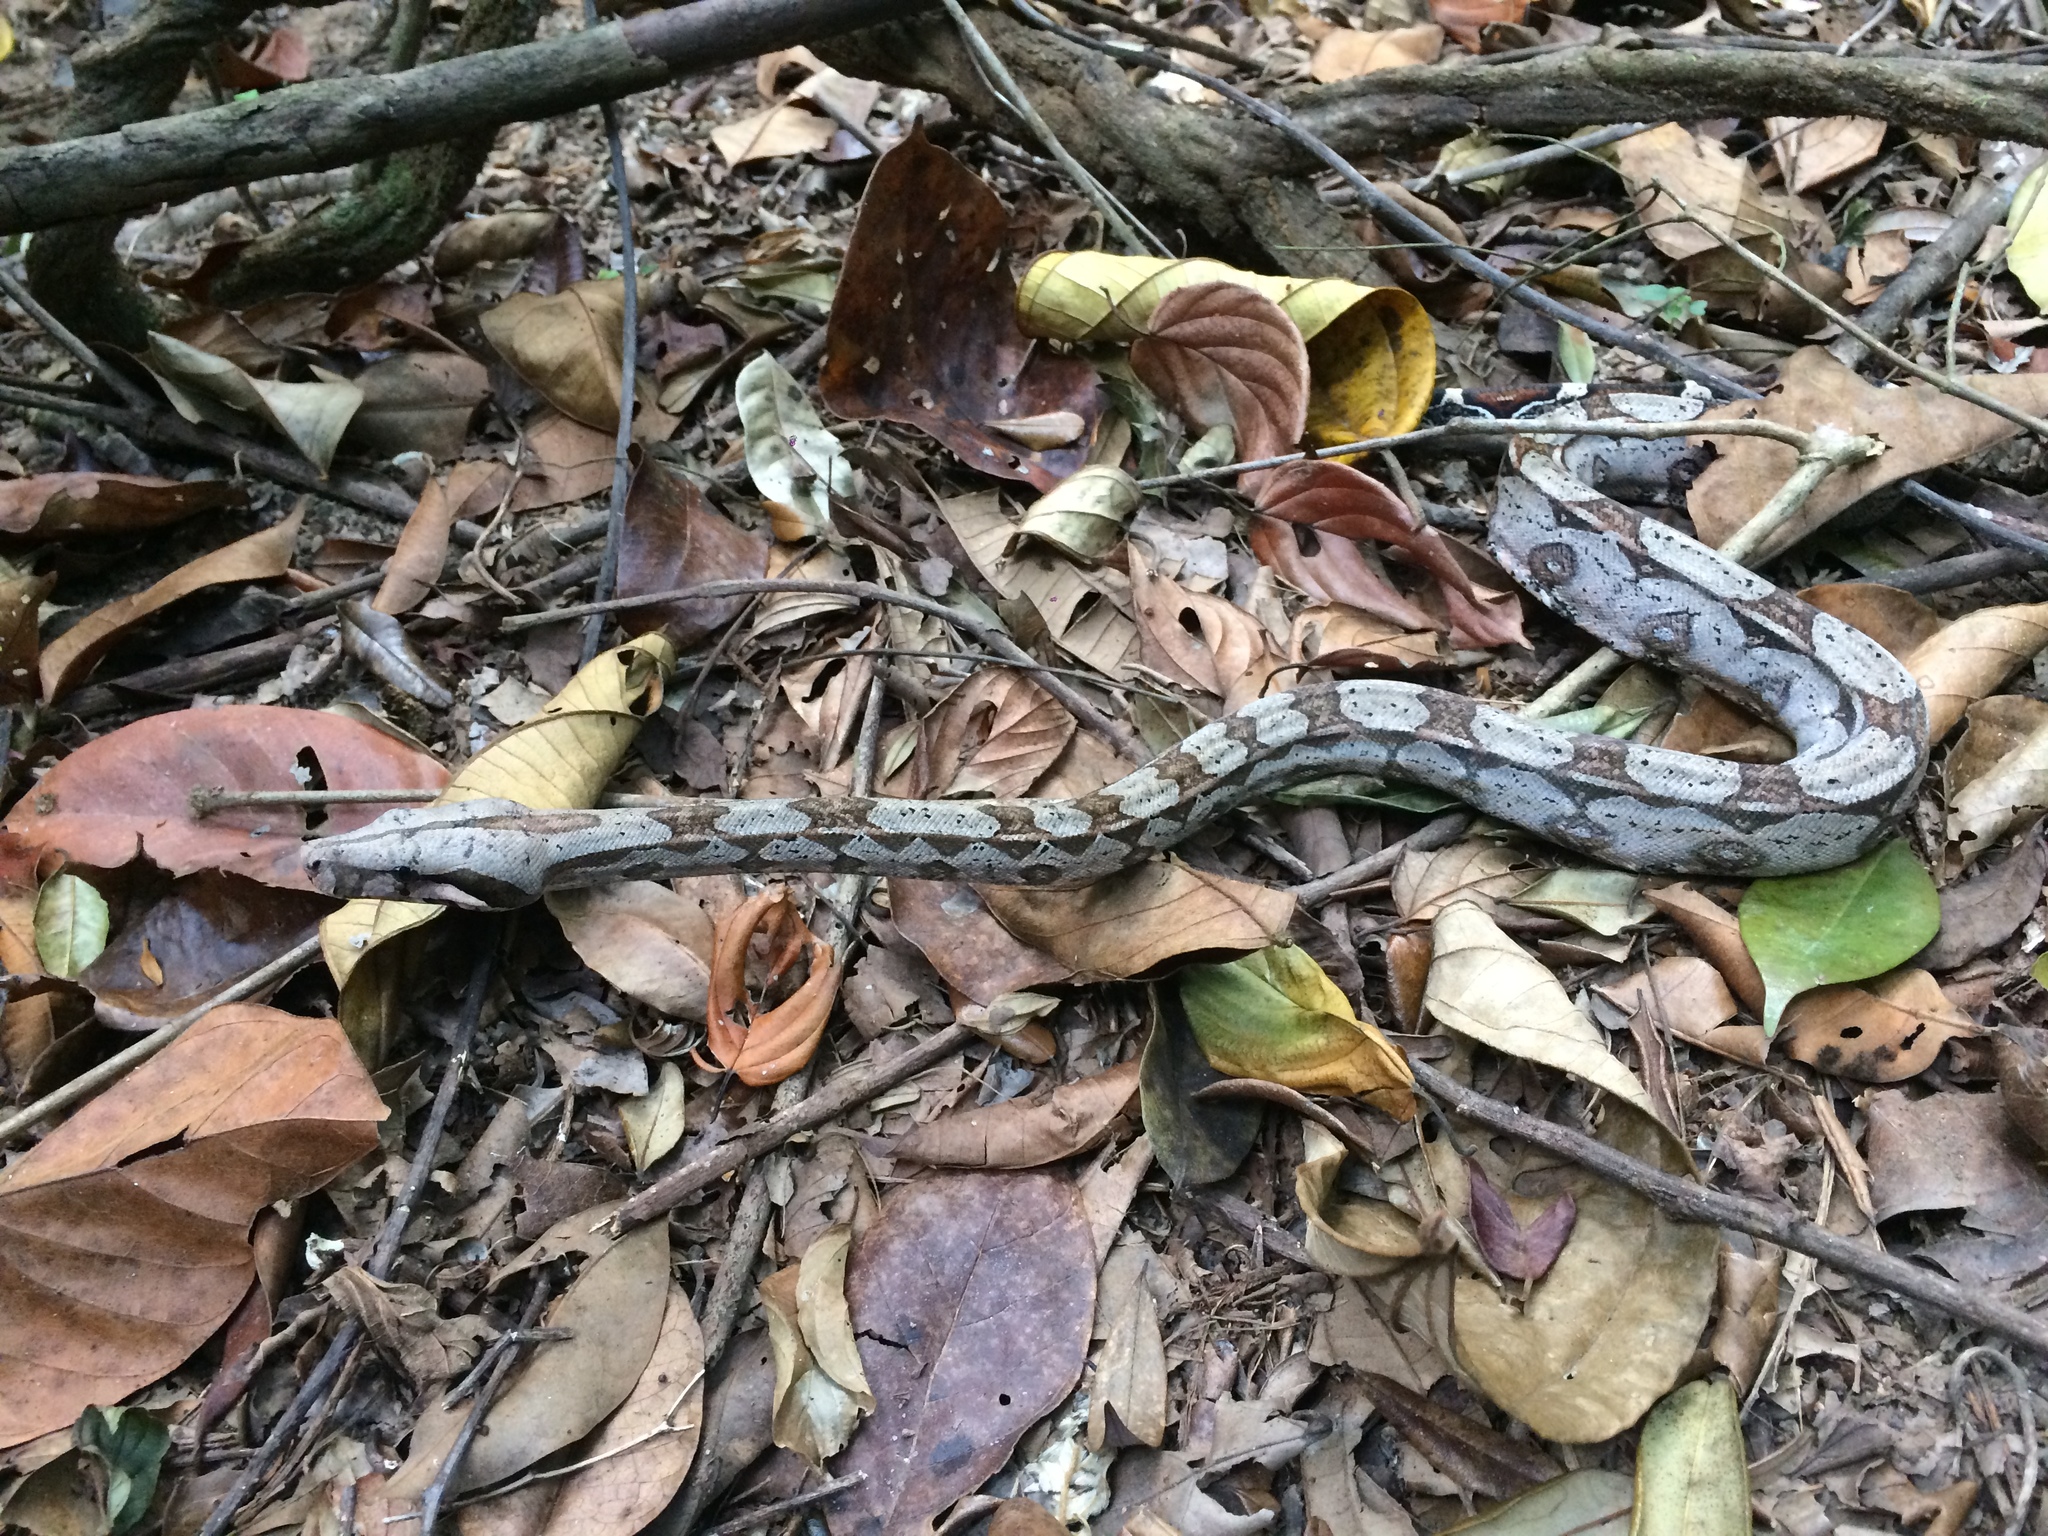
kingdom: Animalia
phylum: Chordata
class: Squamata
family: Boidae
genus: Boa
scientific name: Boa constrictor
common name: Boa constrictor
